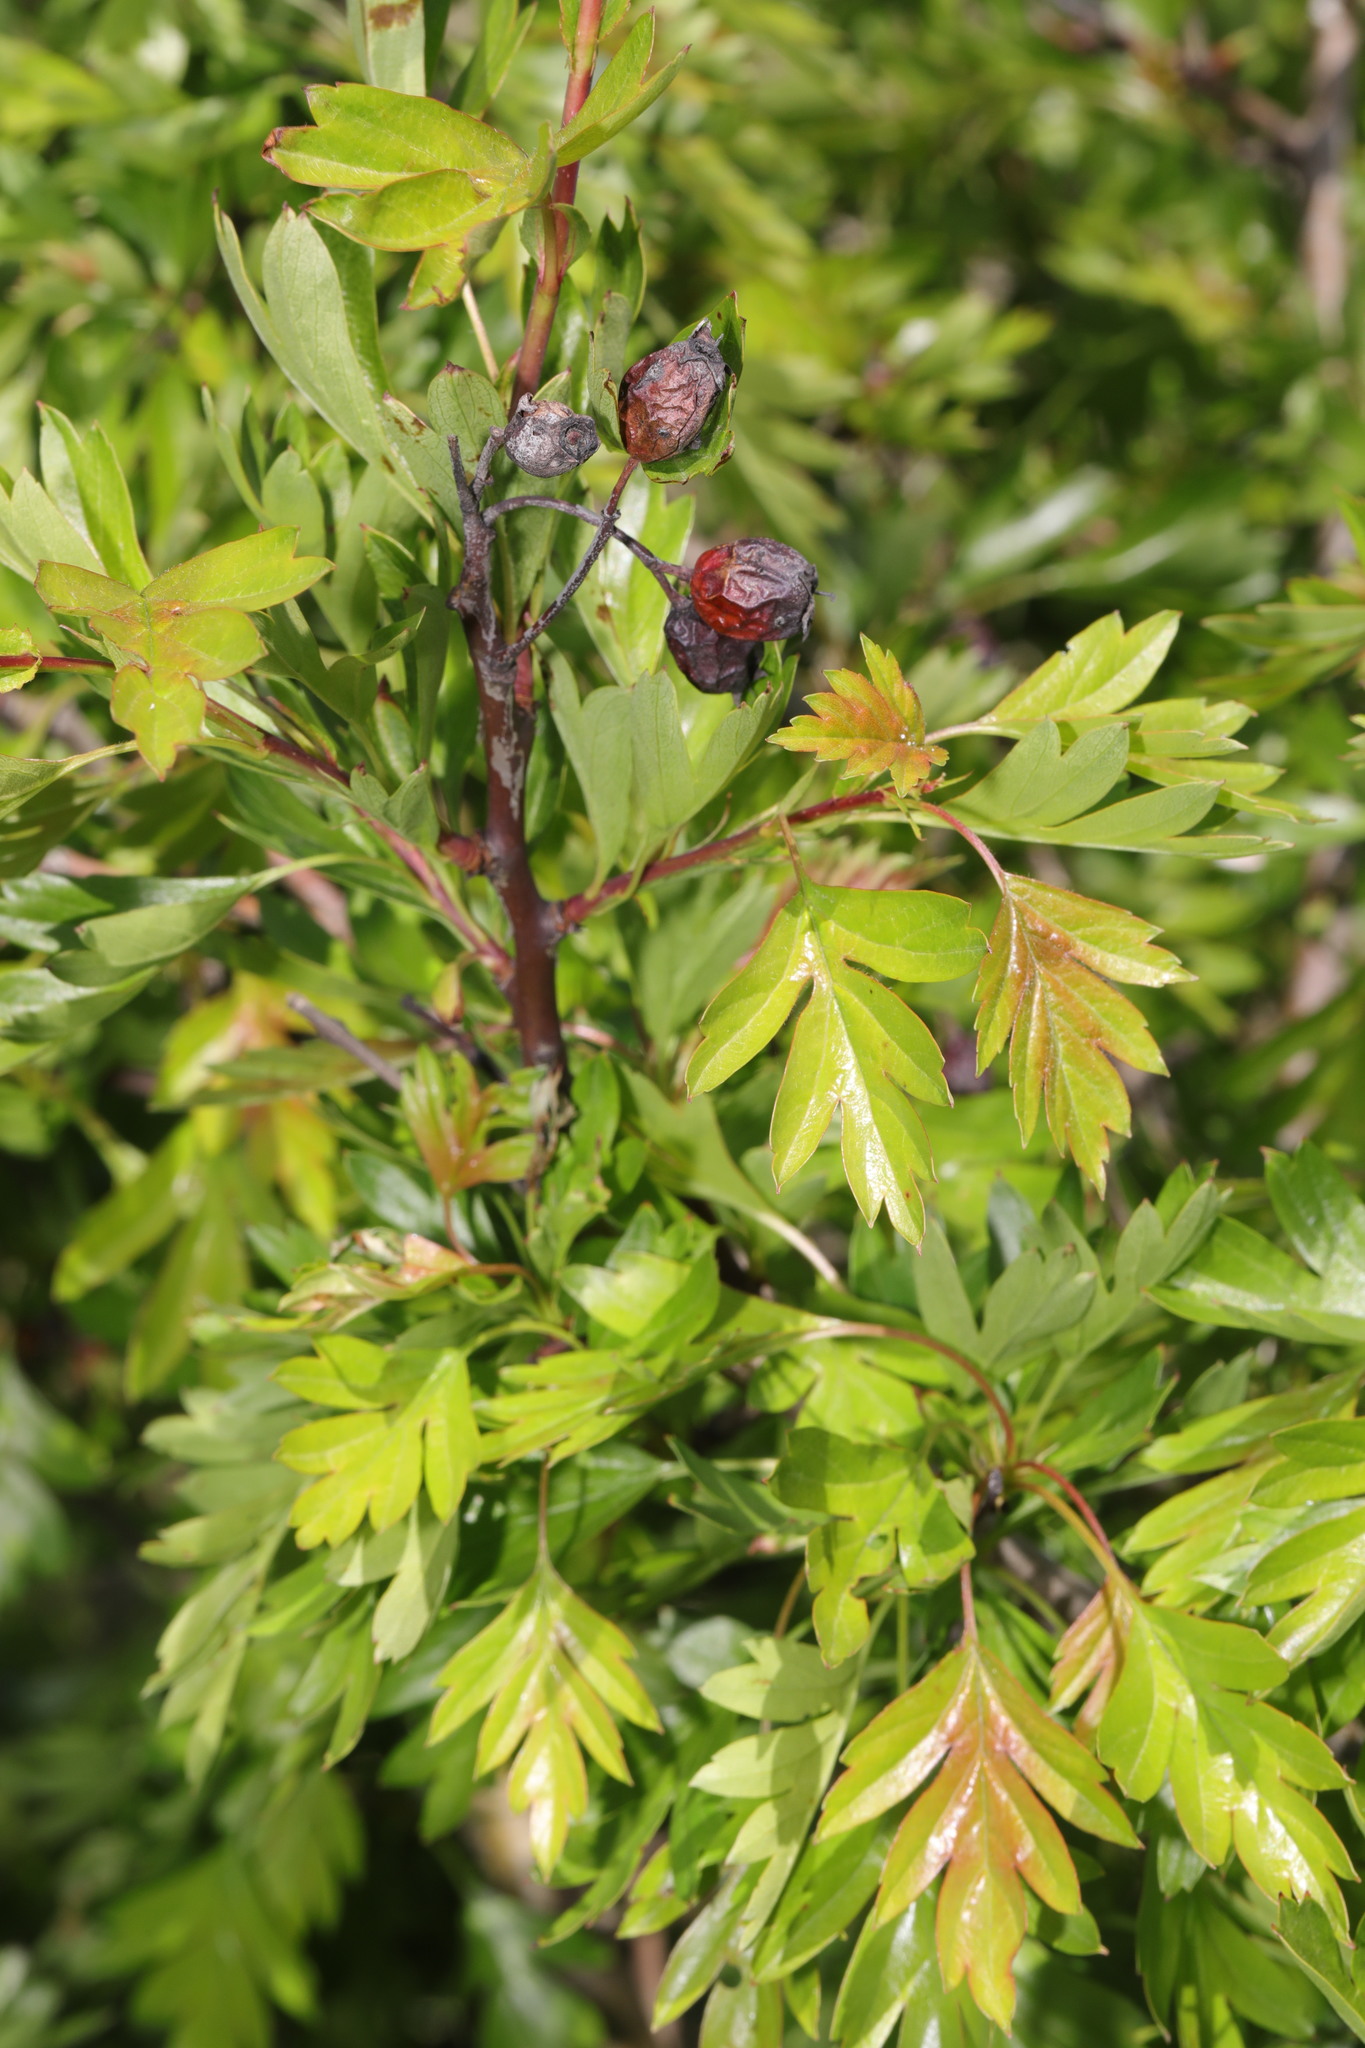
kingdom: Plantae
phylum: Tracheophyta
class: Magnoliopsida
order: Rosales
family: Rosaceae
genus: Crataegus
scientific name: Crataegus monogyna
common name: Hawthorn
